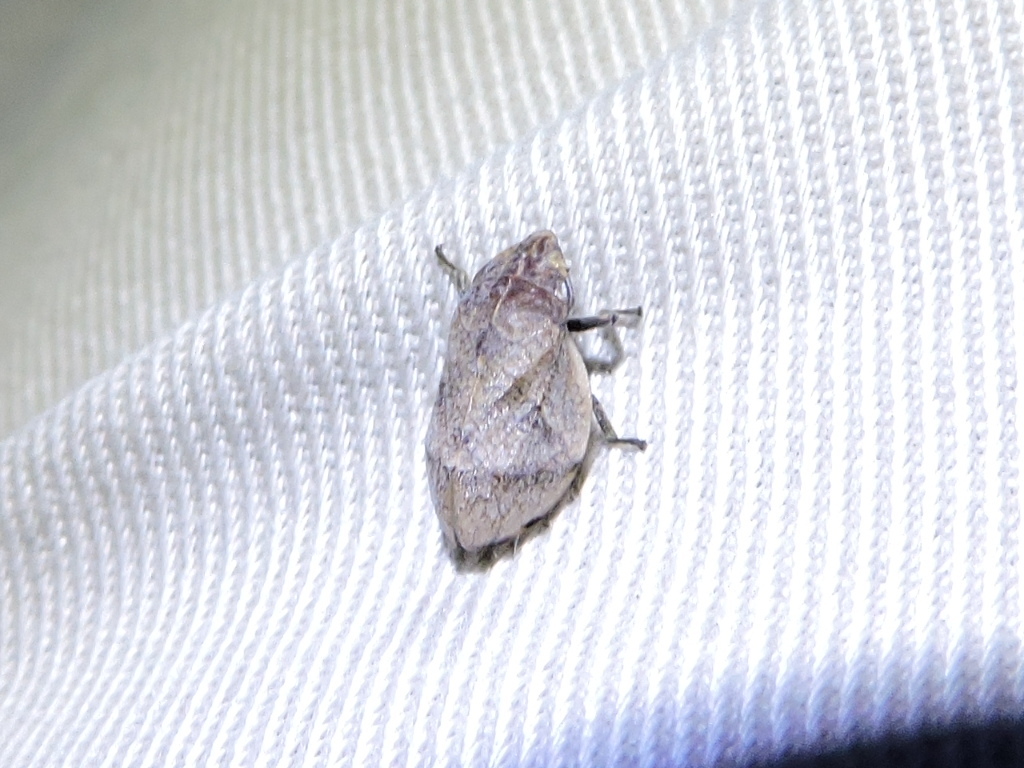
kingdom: Animalia
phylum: Arthropoda
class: Insecta
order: Hemiptera
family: Aphrophoridae
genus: Lepyronia
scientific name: Lepyronia gibbosa
